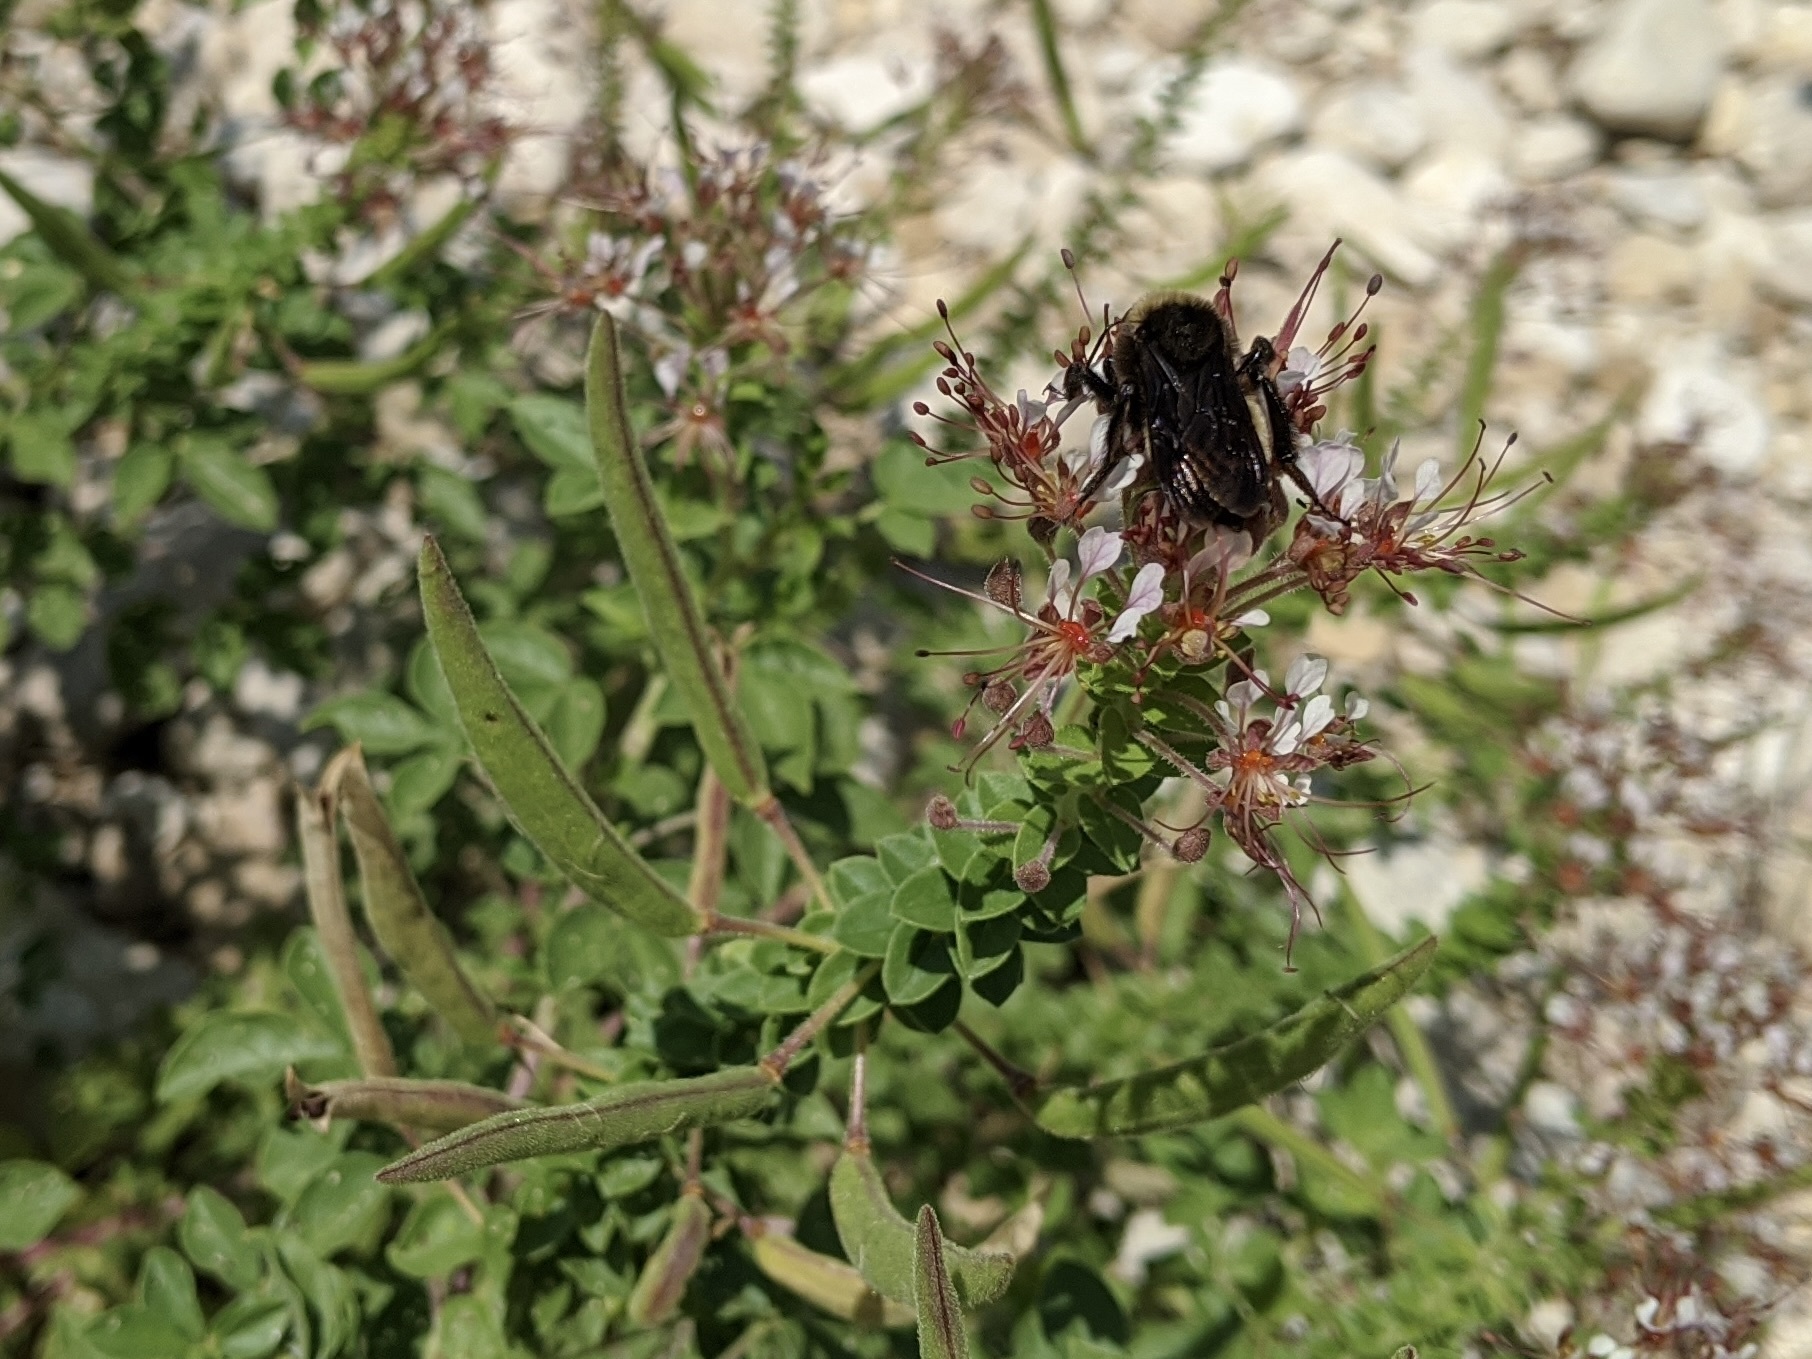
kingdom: Animalia
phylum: Arthropoda
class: Insecta
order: Hymenoptera
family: Apidae
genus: Bombus
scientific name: Bombus pensylvanicus
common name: Bumble bee
